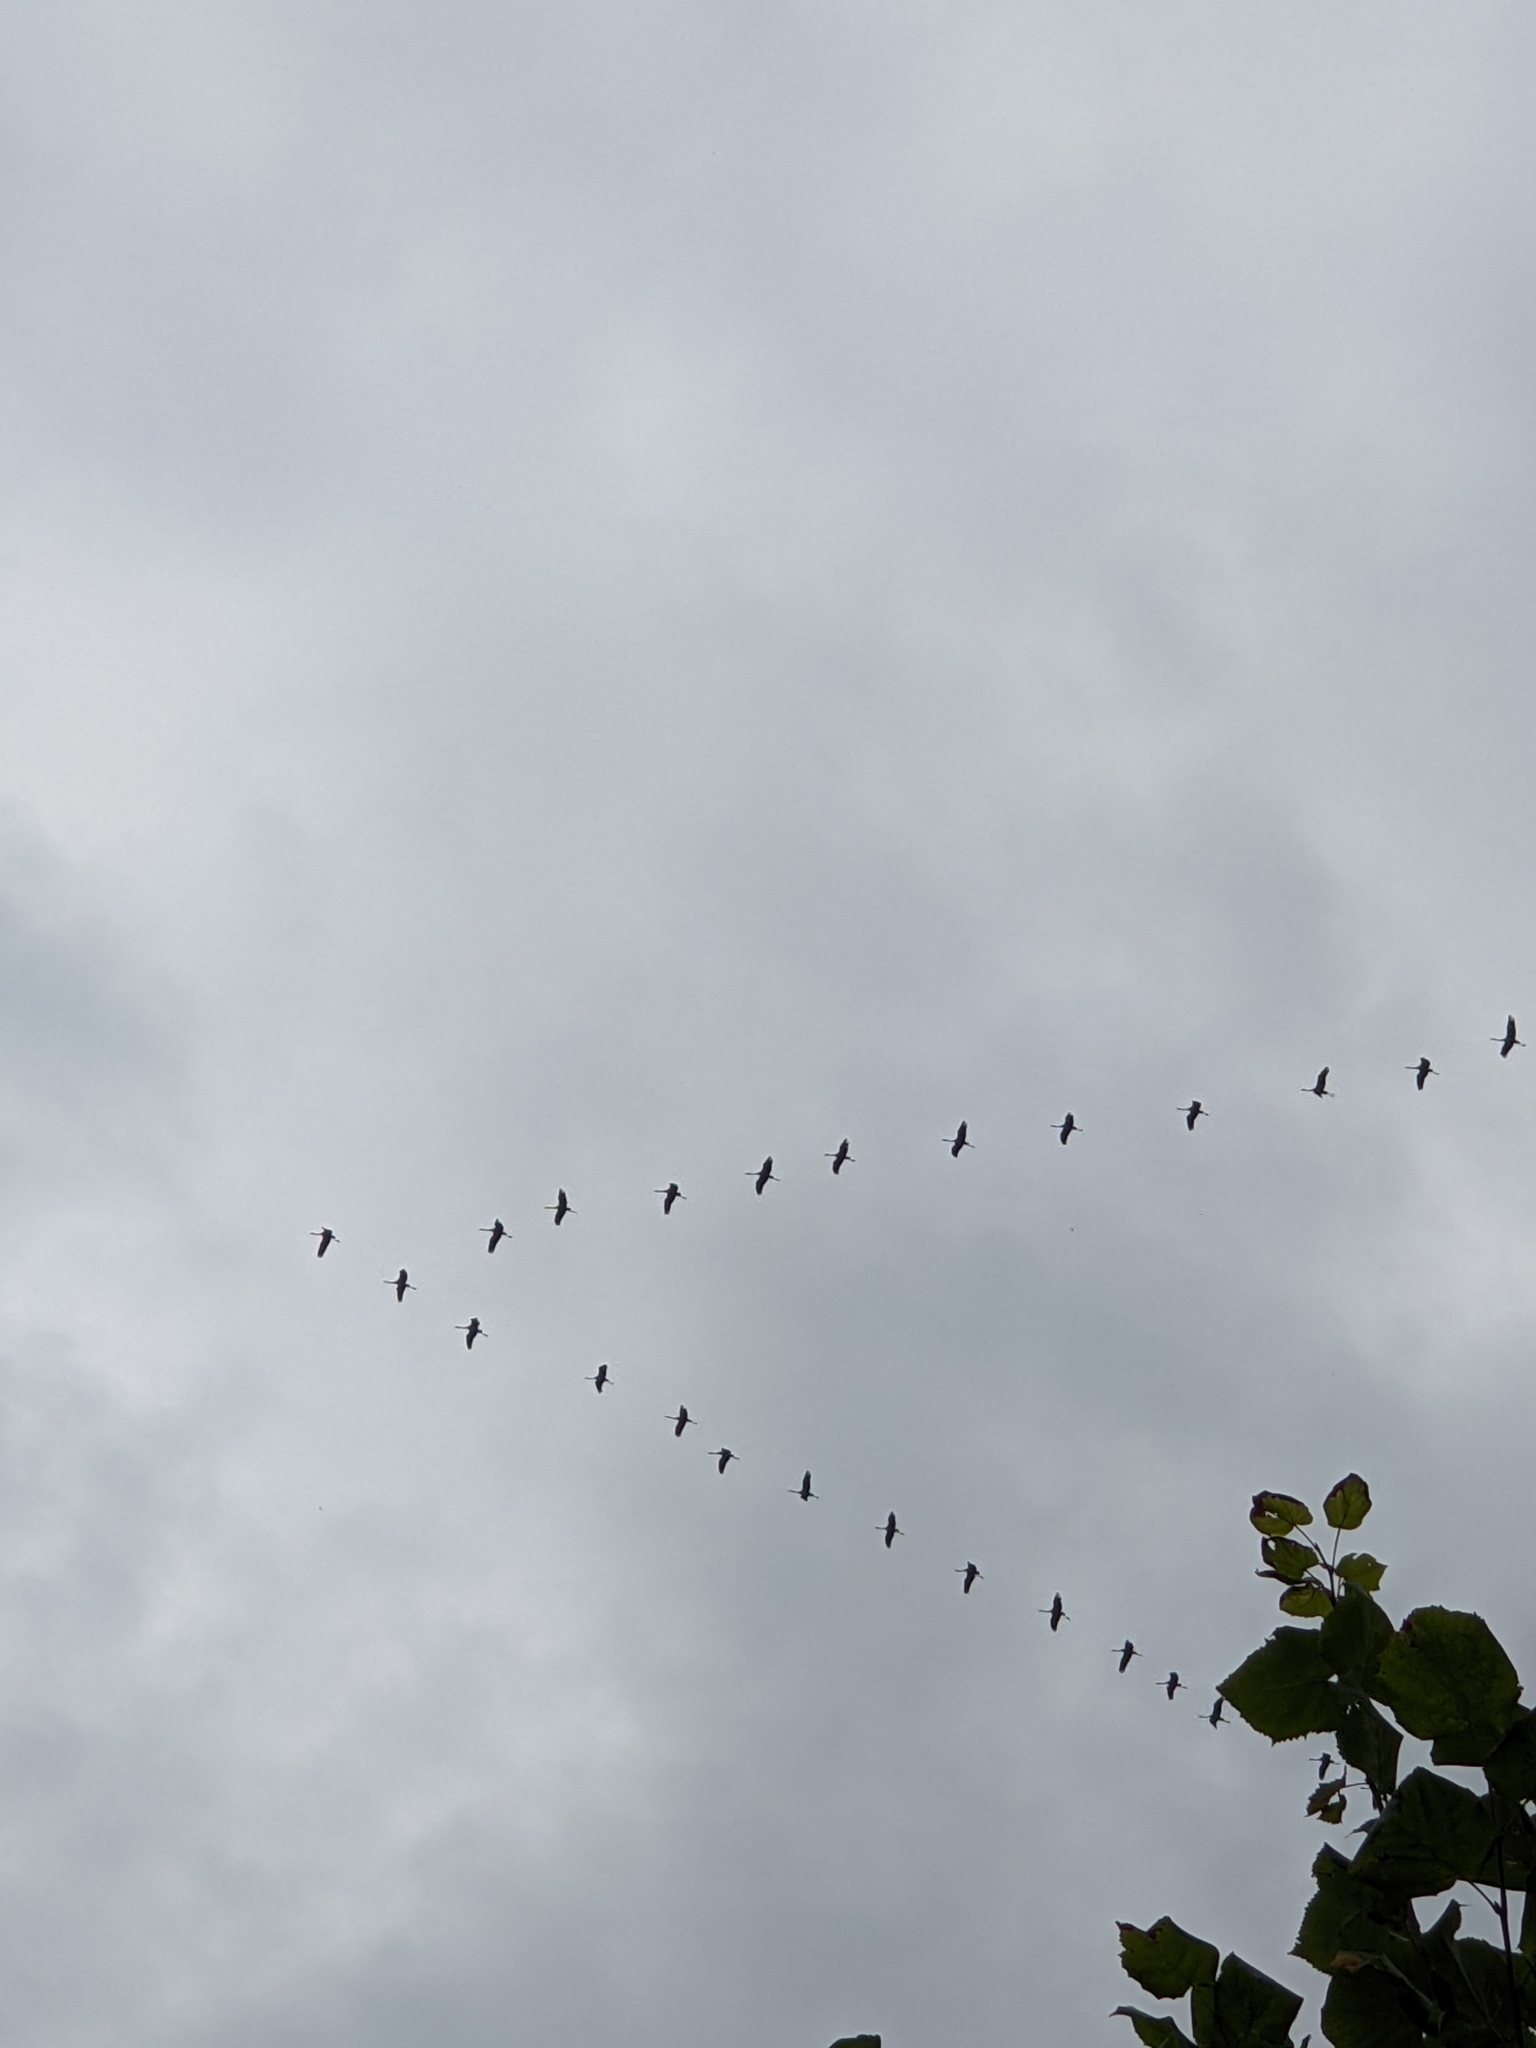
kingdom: Animalia
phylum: Chordata
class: Aves
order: Gruiformes
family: Gruidae
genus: Grus
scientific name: Grus grus
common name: Common crane
